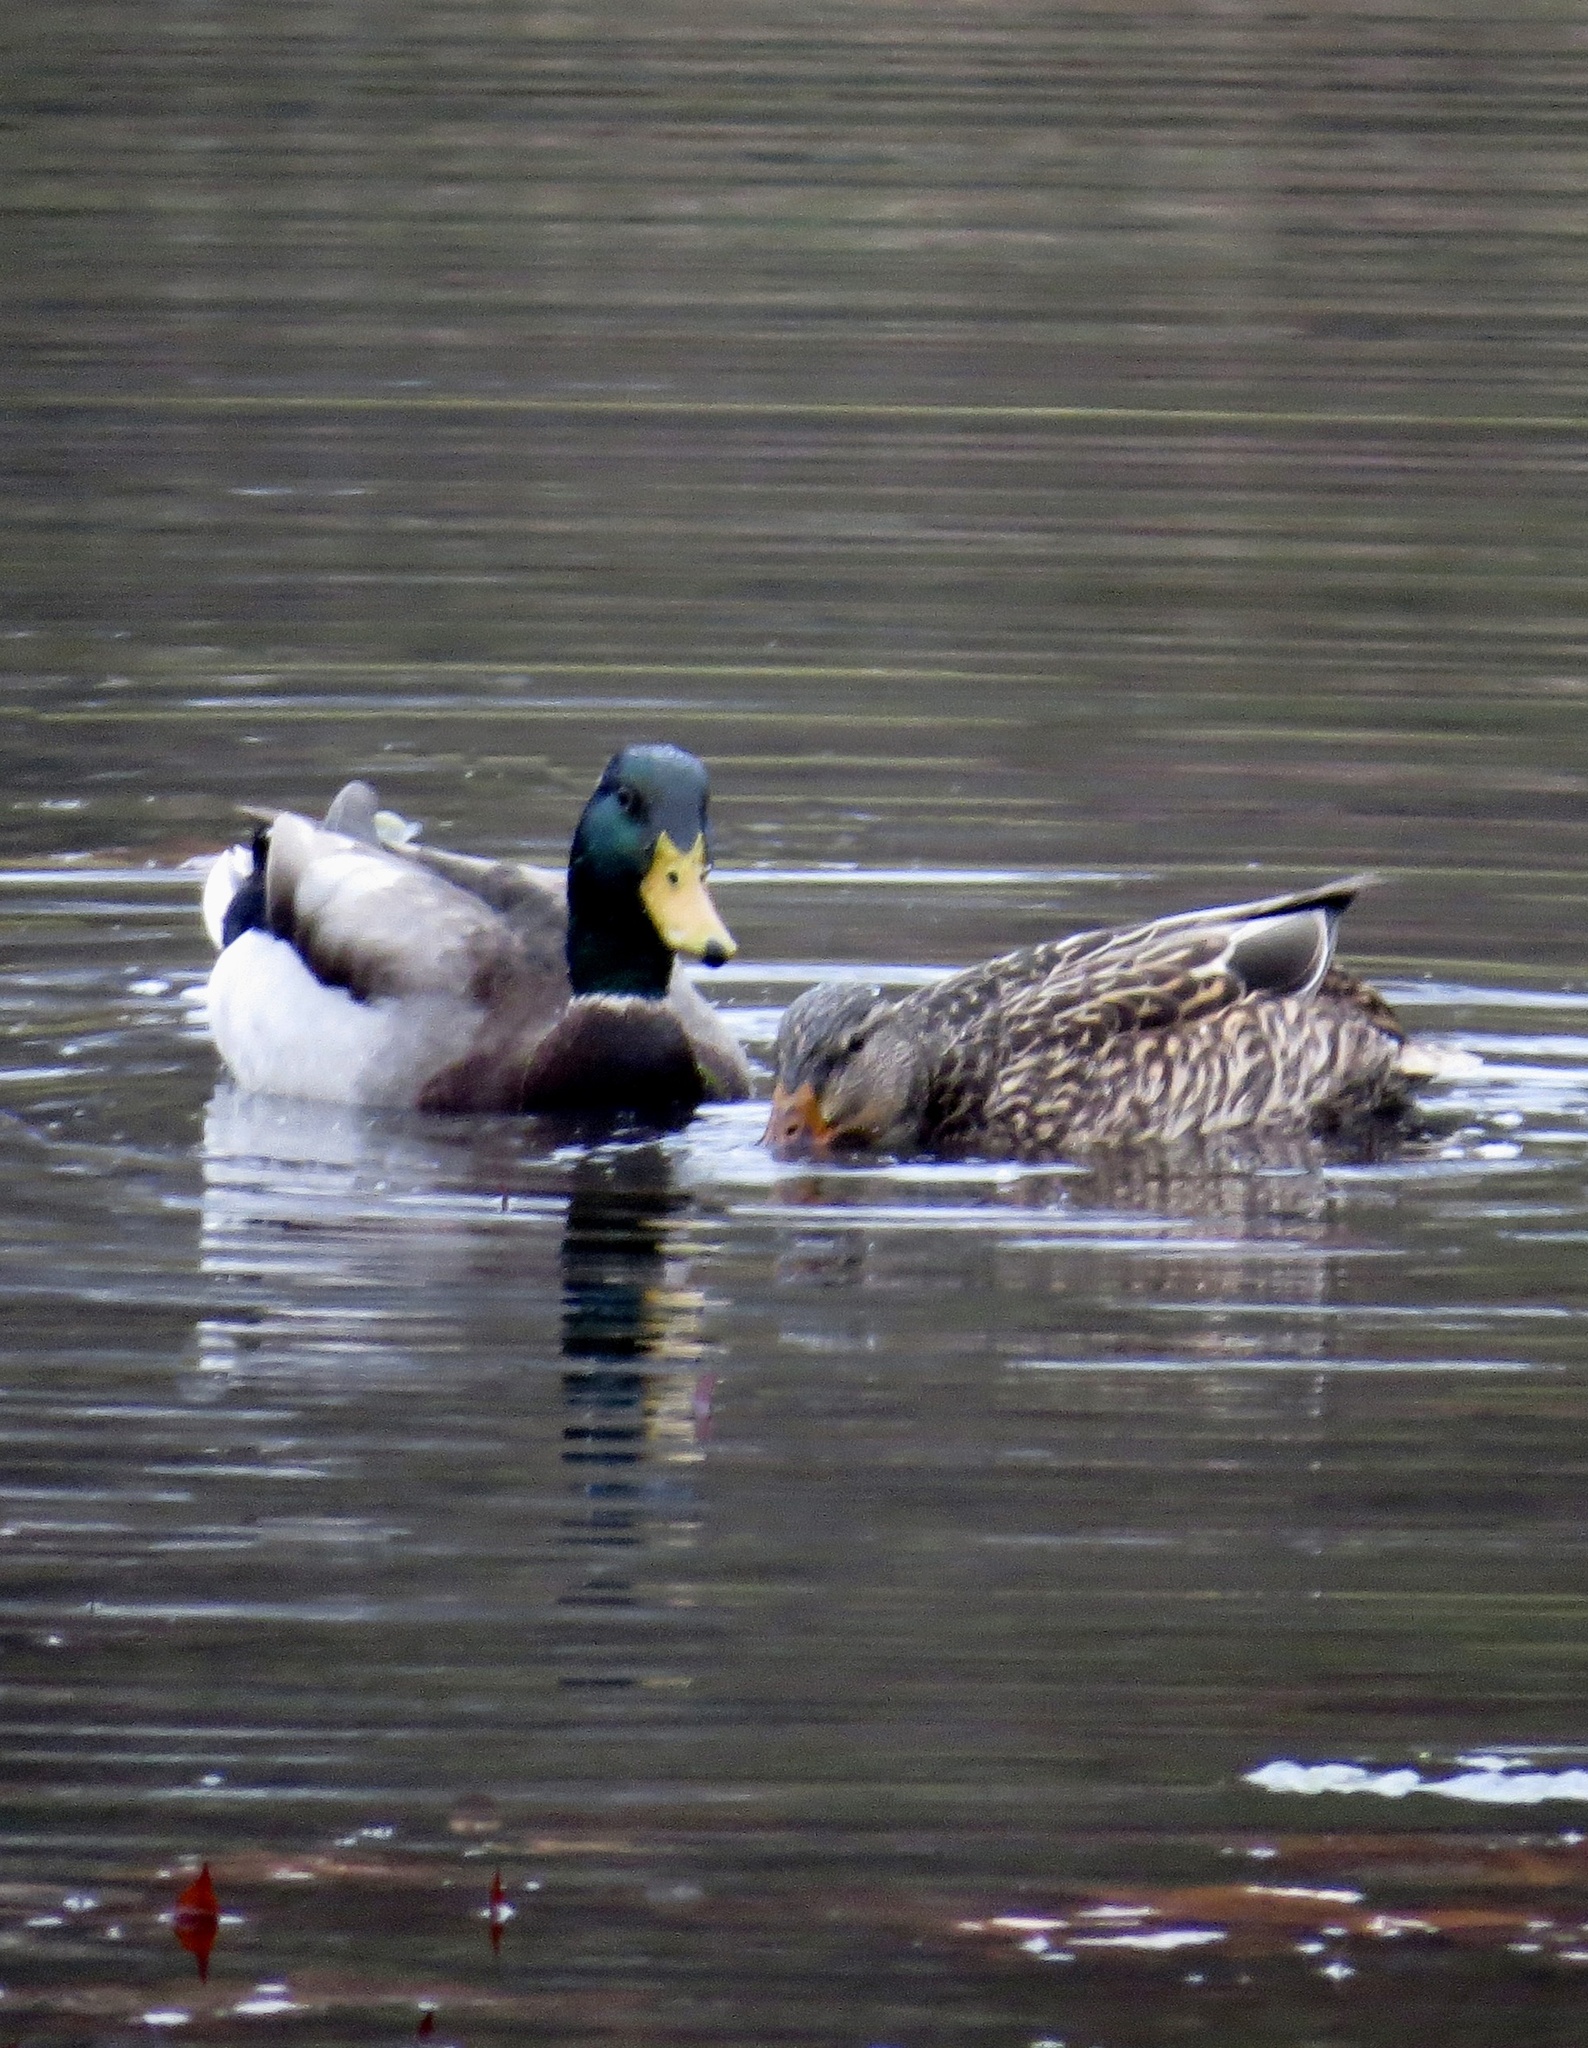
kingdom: Animalia
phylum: Chordata
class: Aves
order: Anseriformes
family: Anatidae
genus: Anas
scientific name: Anas platyrhynchos
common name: Mallard
